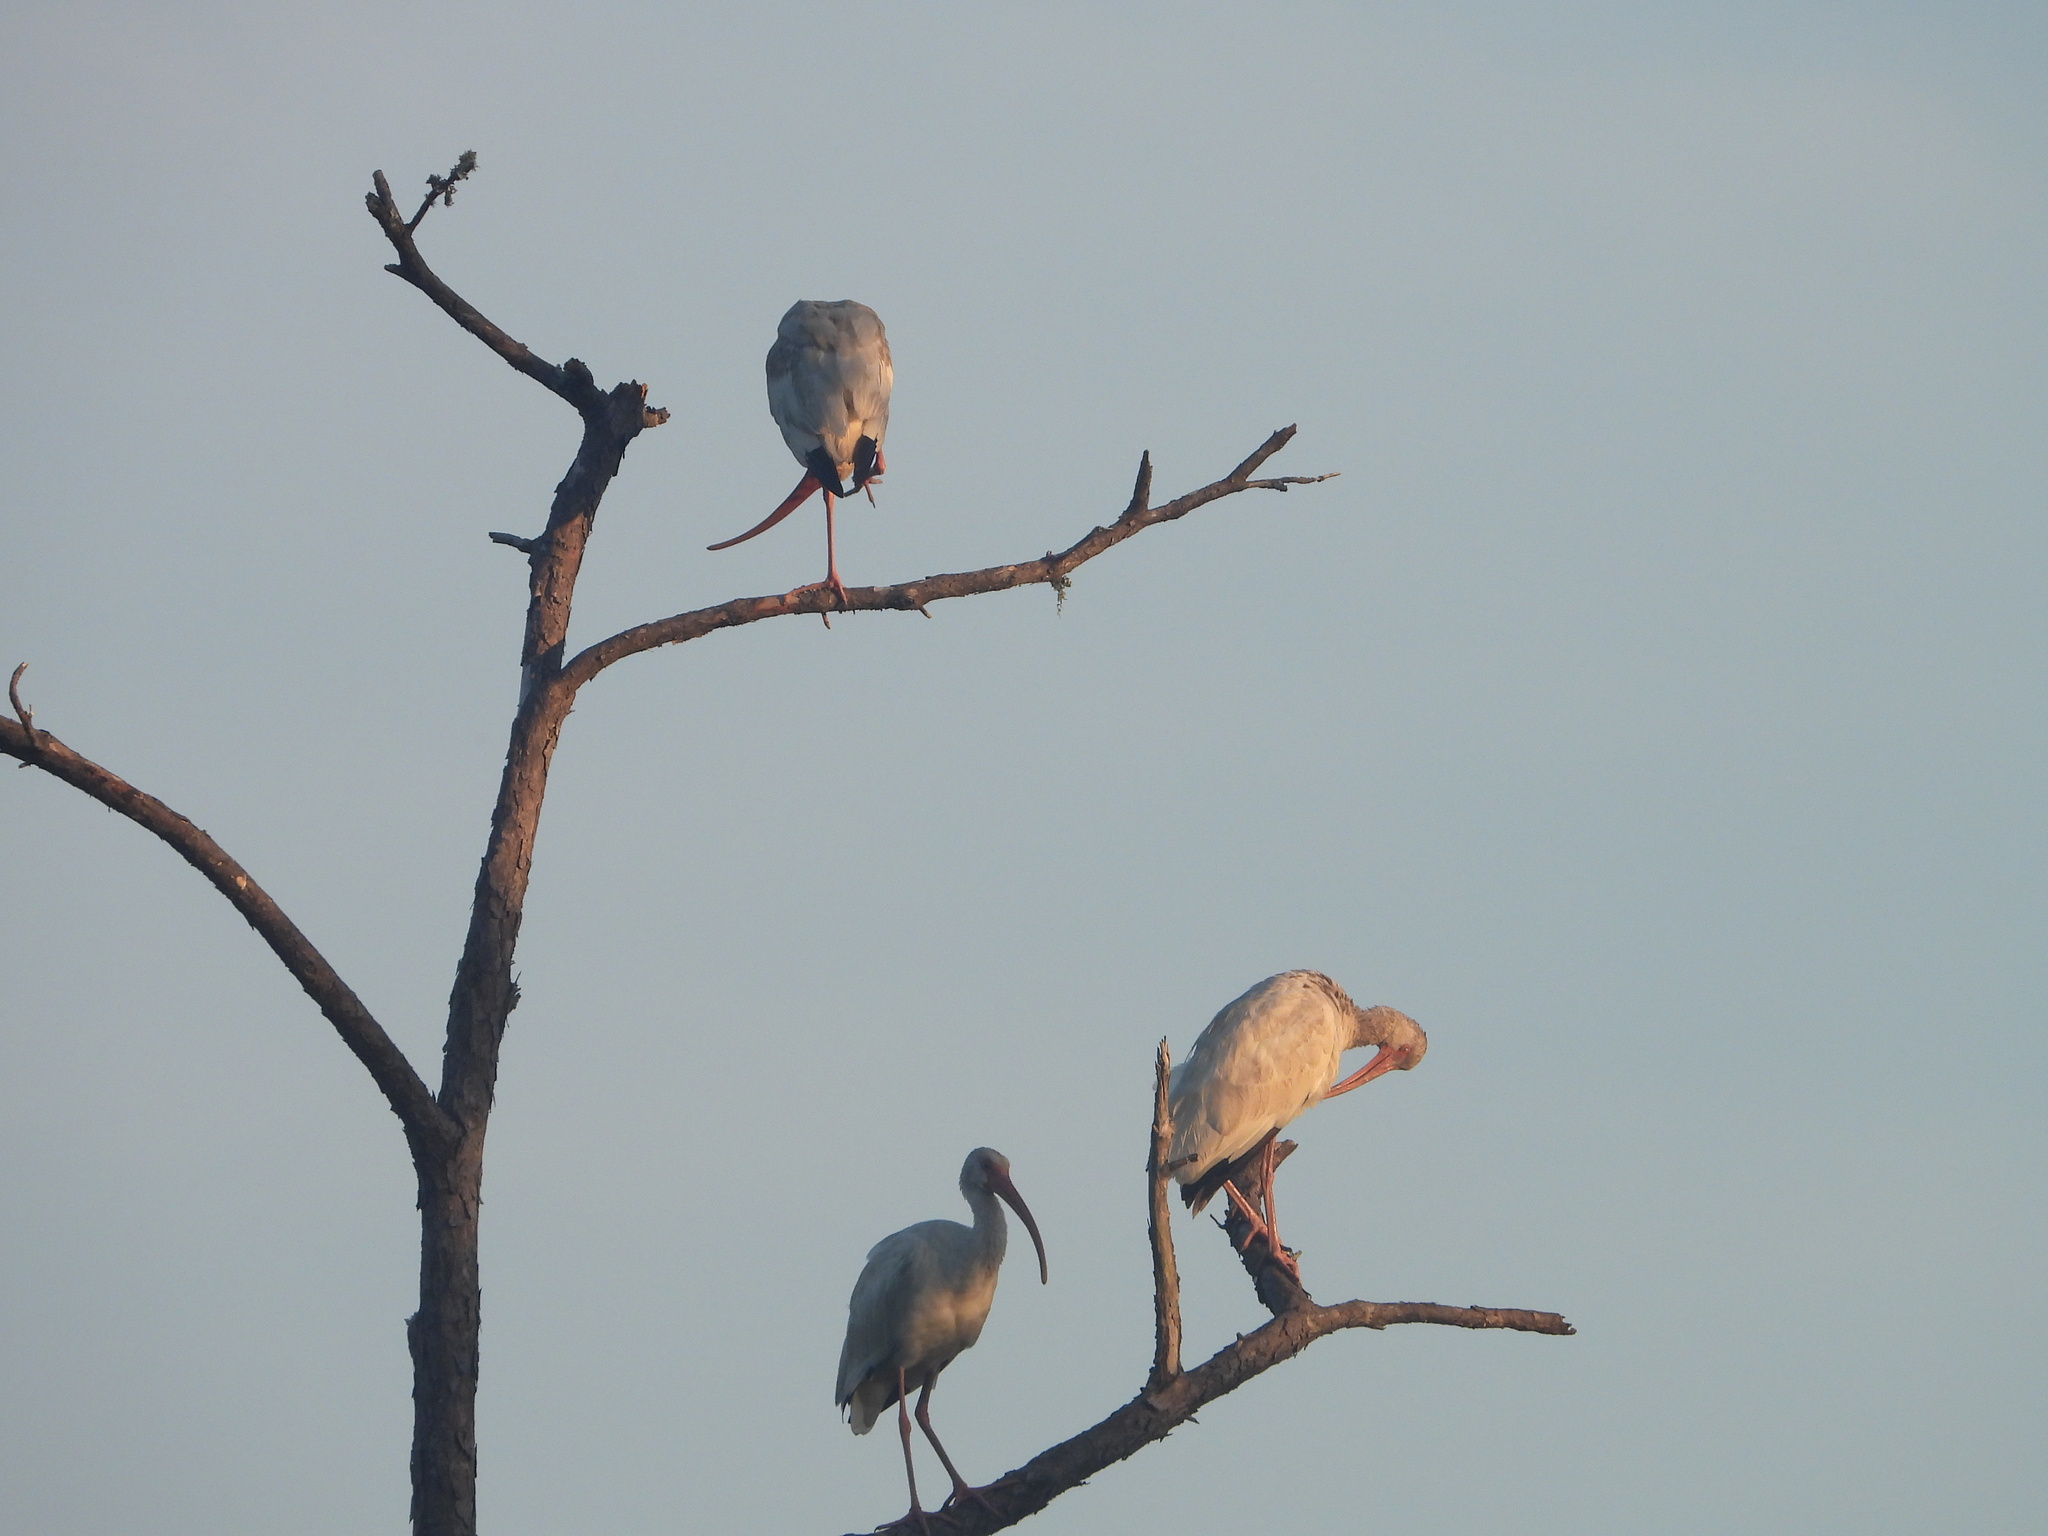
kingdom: Animalia
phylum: Chordata
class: Aves
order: Pelecaniformes
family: Threskiornithidae
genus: Eudocimus
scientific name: Eudocimus albus
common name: White ibis
